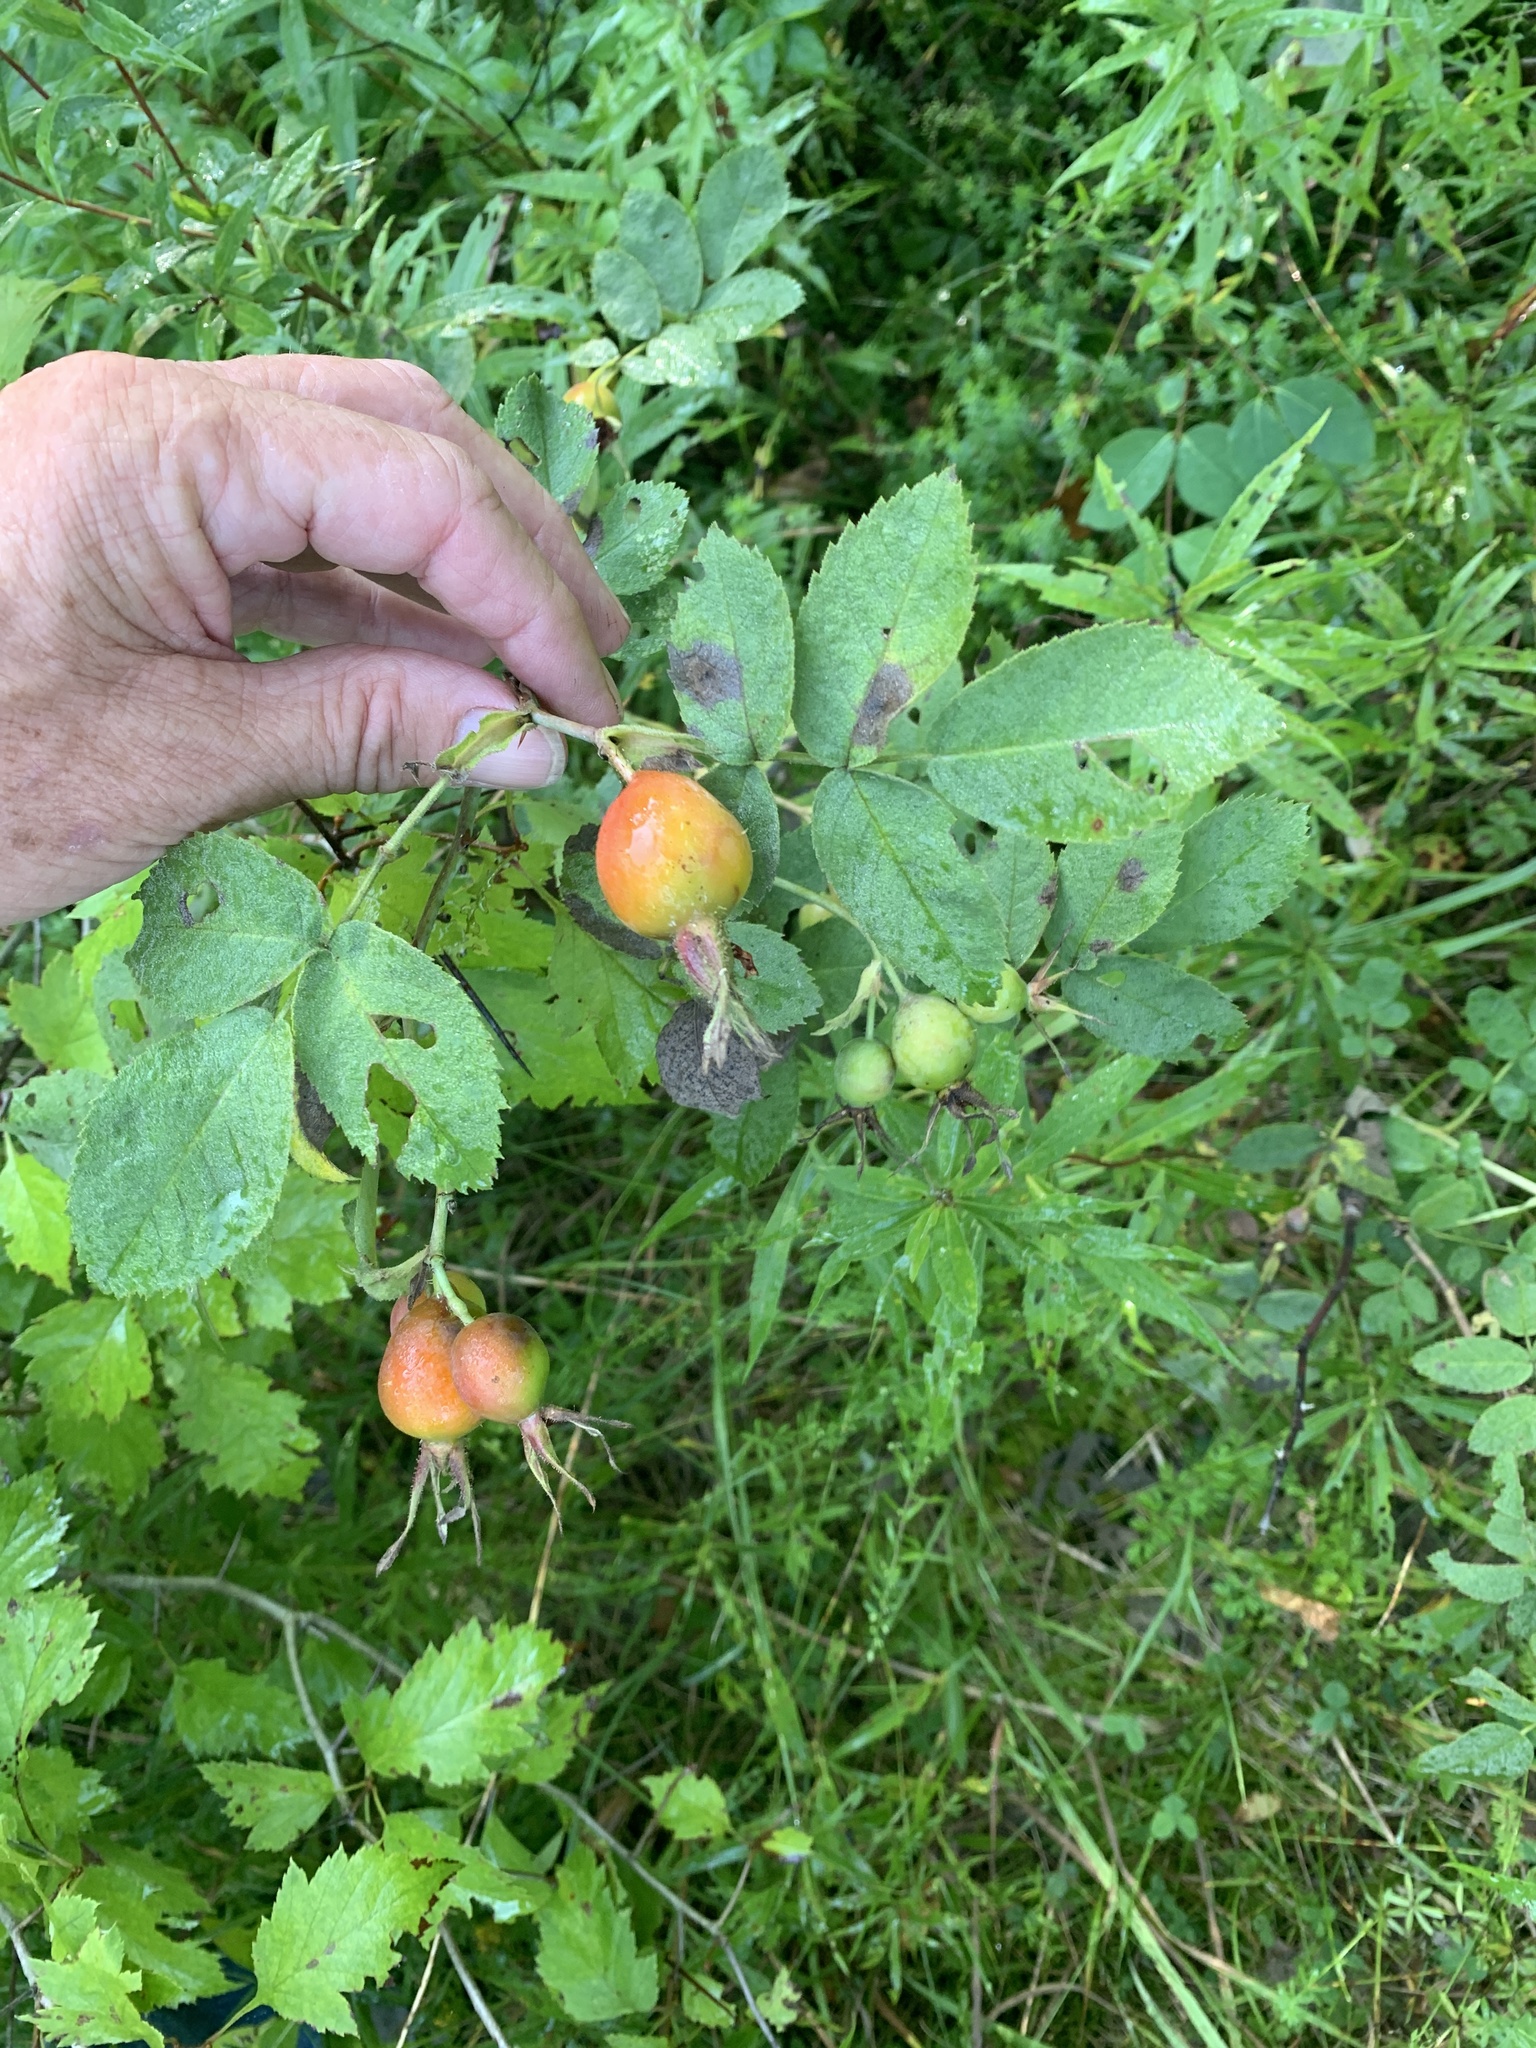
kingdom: Plantae
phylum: Tracheophyta
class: Magnoliopsida
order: Rosales
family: Rosaceae
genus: Rosa
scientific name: Rosa sherardii
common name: Sherard's downy rose
